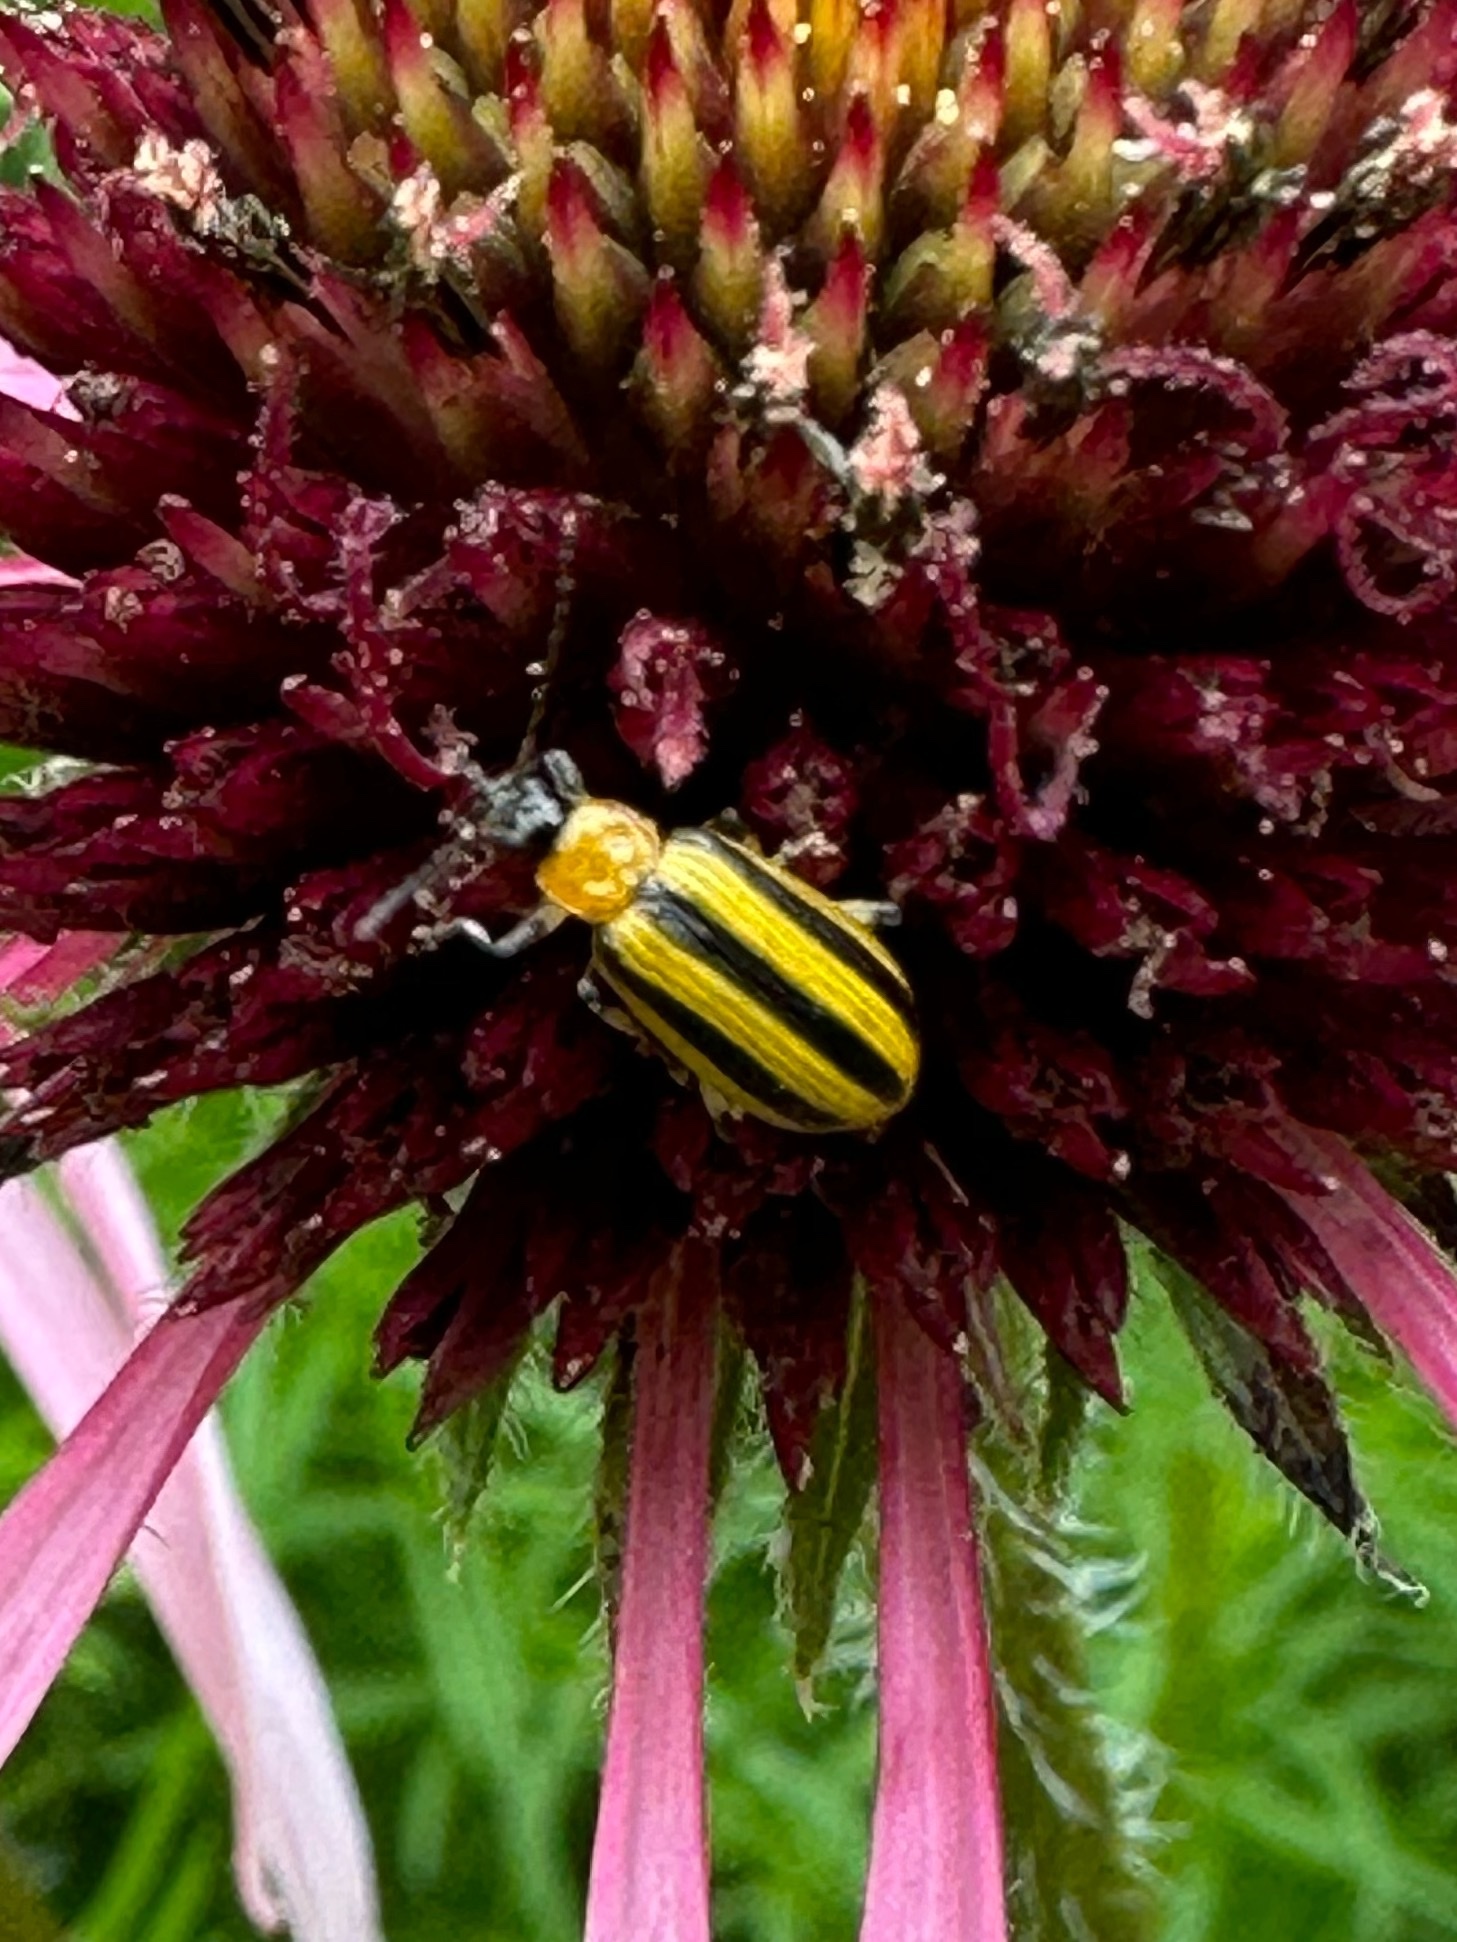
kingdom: Animalia
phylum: Arthropoda
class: Insecta
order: Coleoptera
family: Chrysomelidae
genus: Acalymma
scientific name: Acalymma vittatum
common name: Striped cucumber beetle
